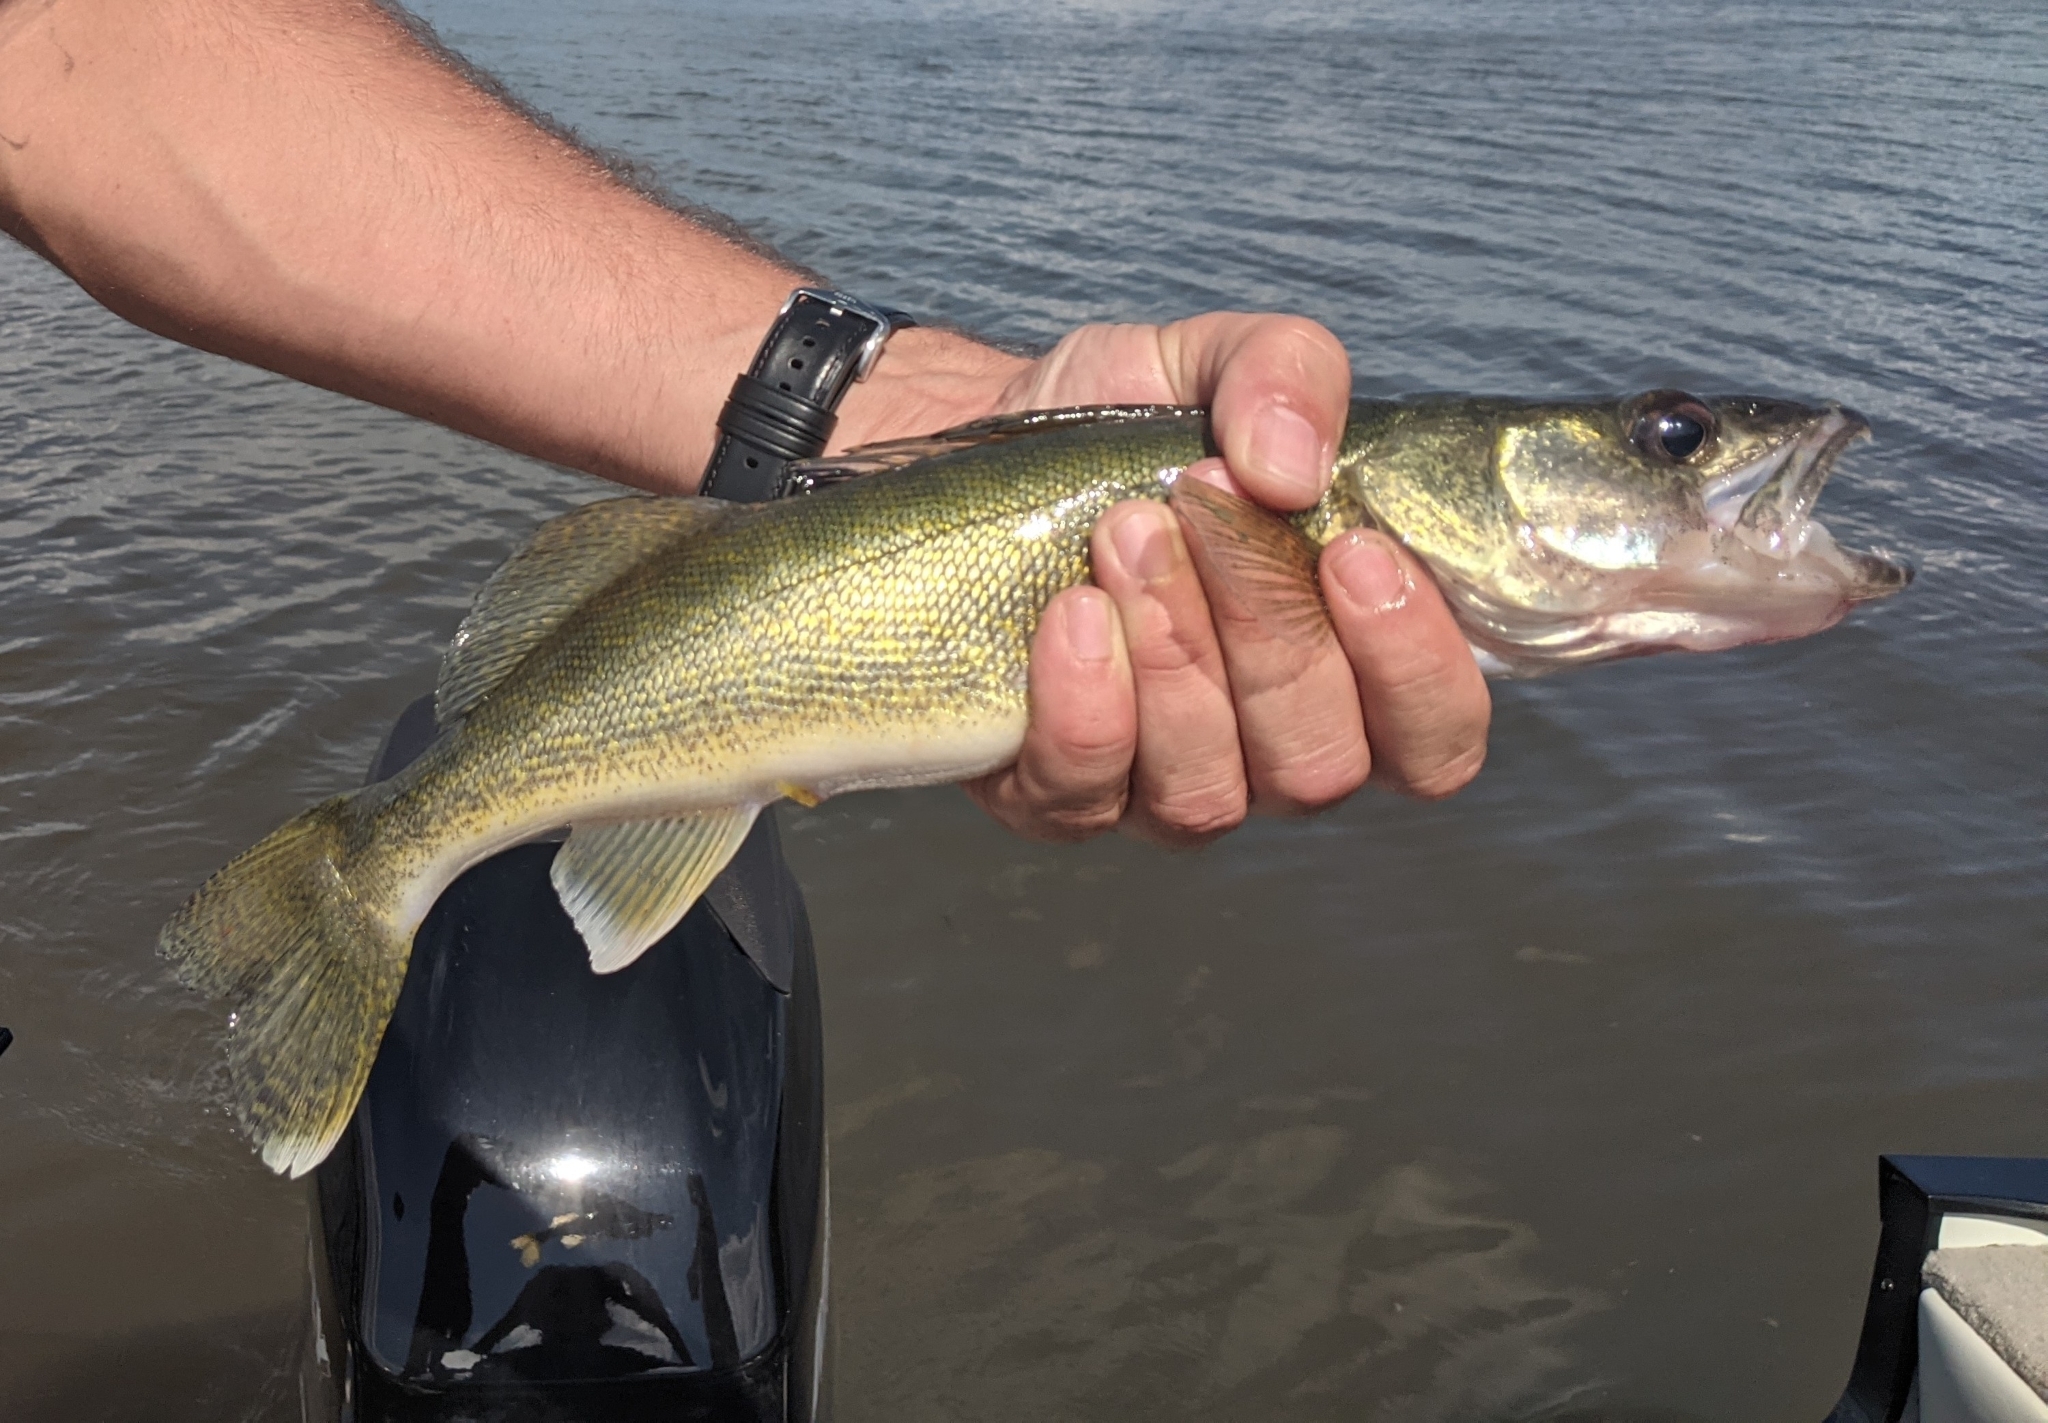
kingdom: Animalia
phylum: Chordata
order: Perciformes
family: Percidae
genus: Sander
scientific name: Sander vitreus
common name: Walleye
